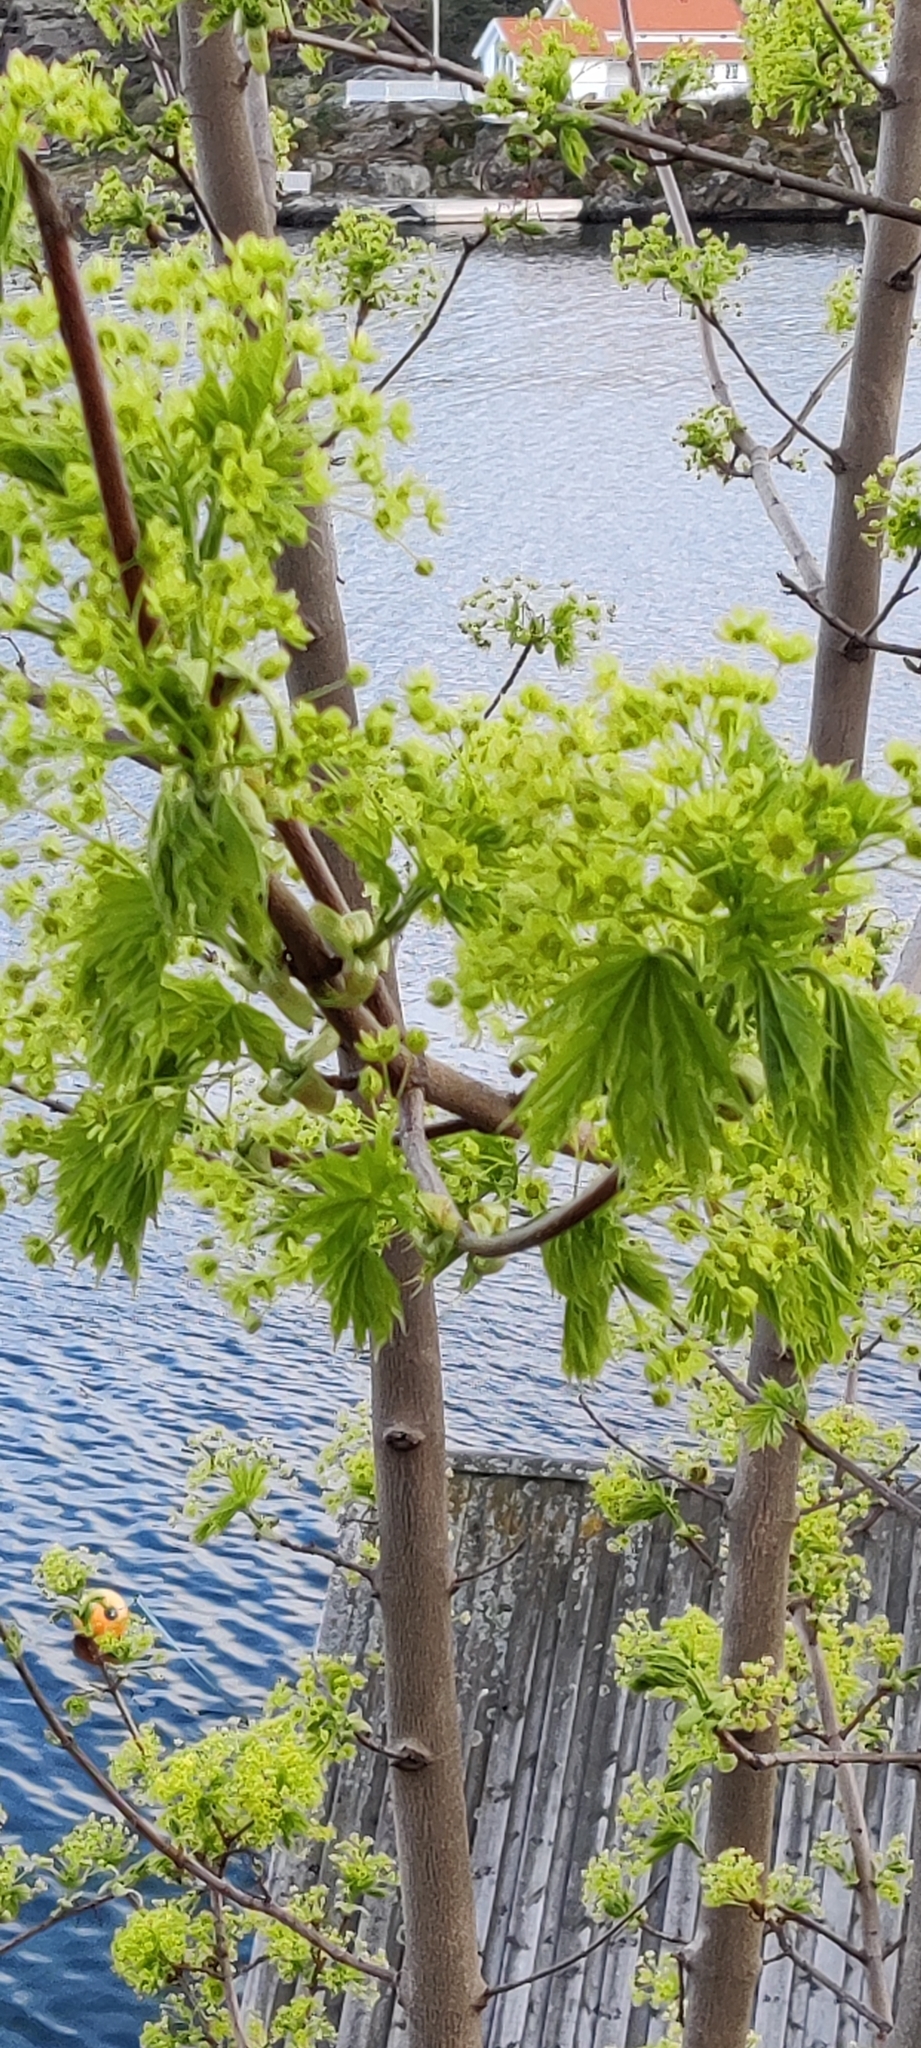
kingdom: Plantae
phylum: Tracheophyta
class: Magnoliopsida
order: Sapindales
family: Sapindaceae
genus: Acer
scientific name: Acer platanoides
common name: Norway maple
